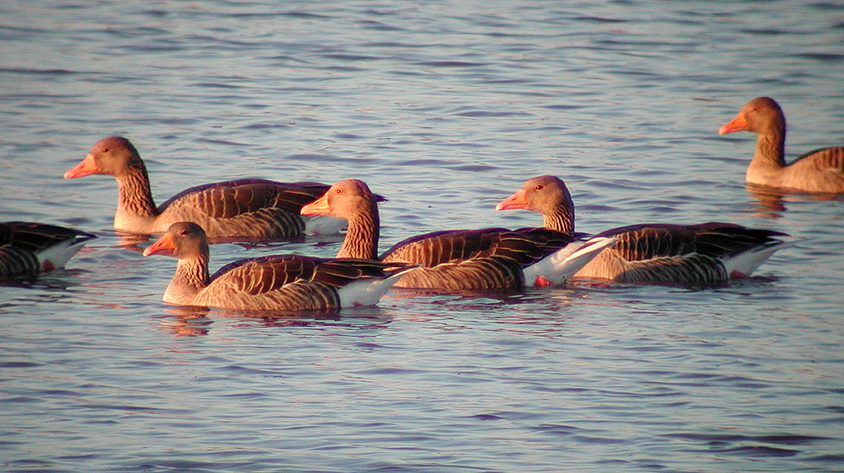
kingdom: Animalia
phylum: Chordata
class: Aves
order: Anseriformes
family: Anatidae
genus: Anser
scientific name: Anser anser
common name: Greylag goose
